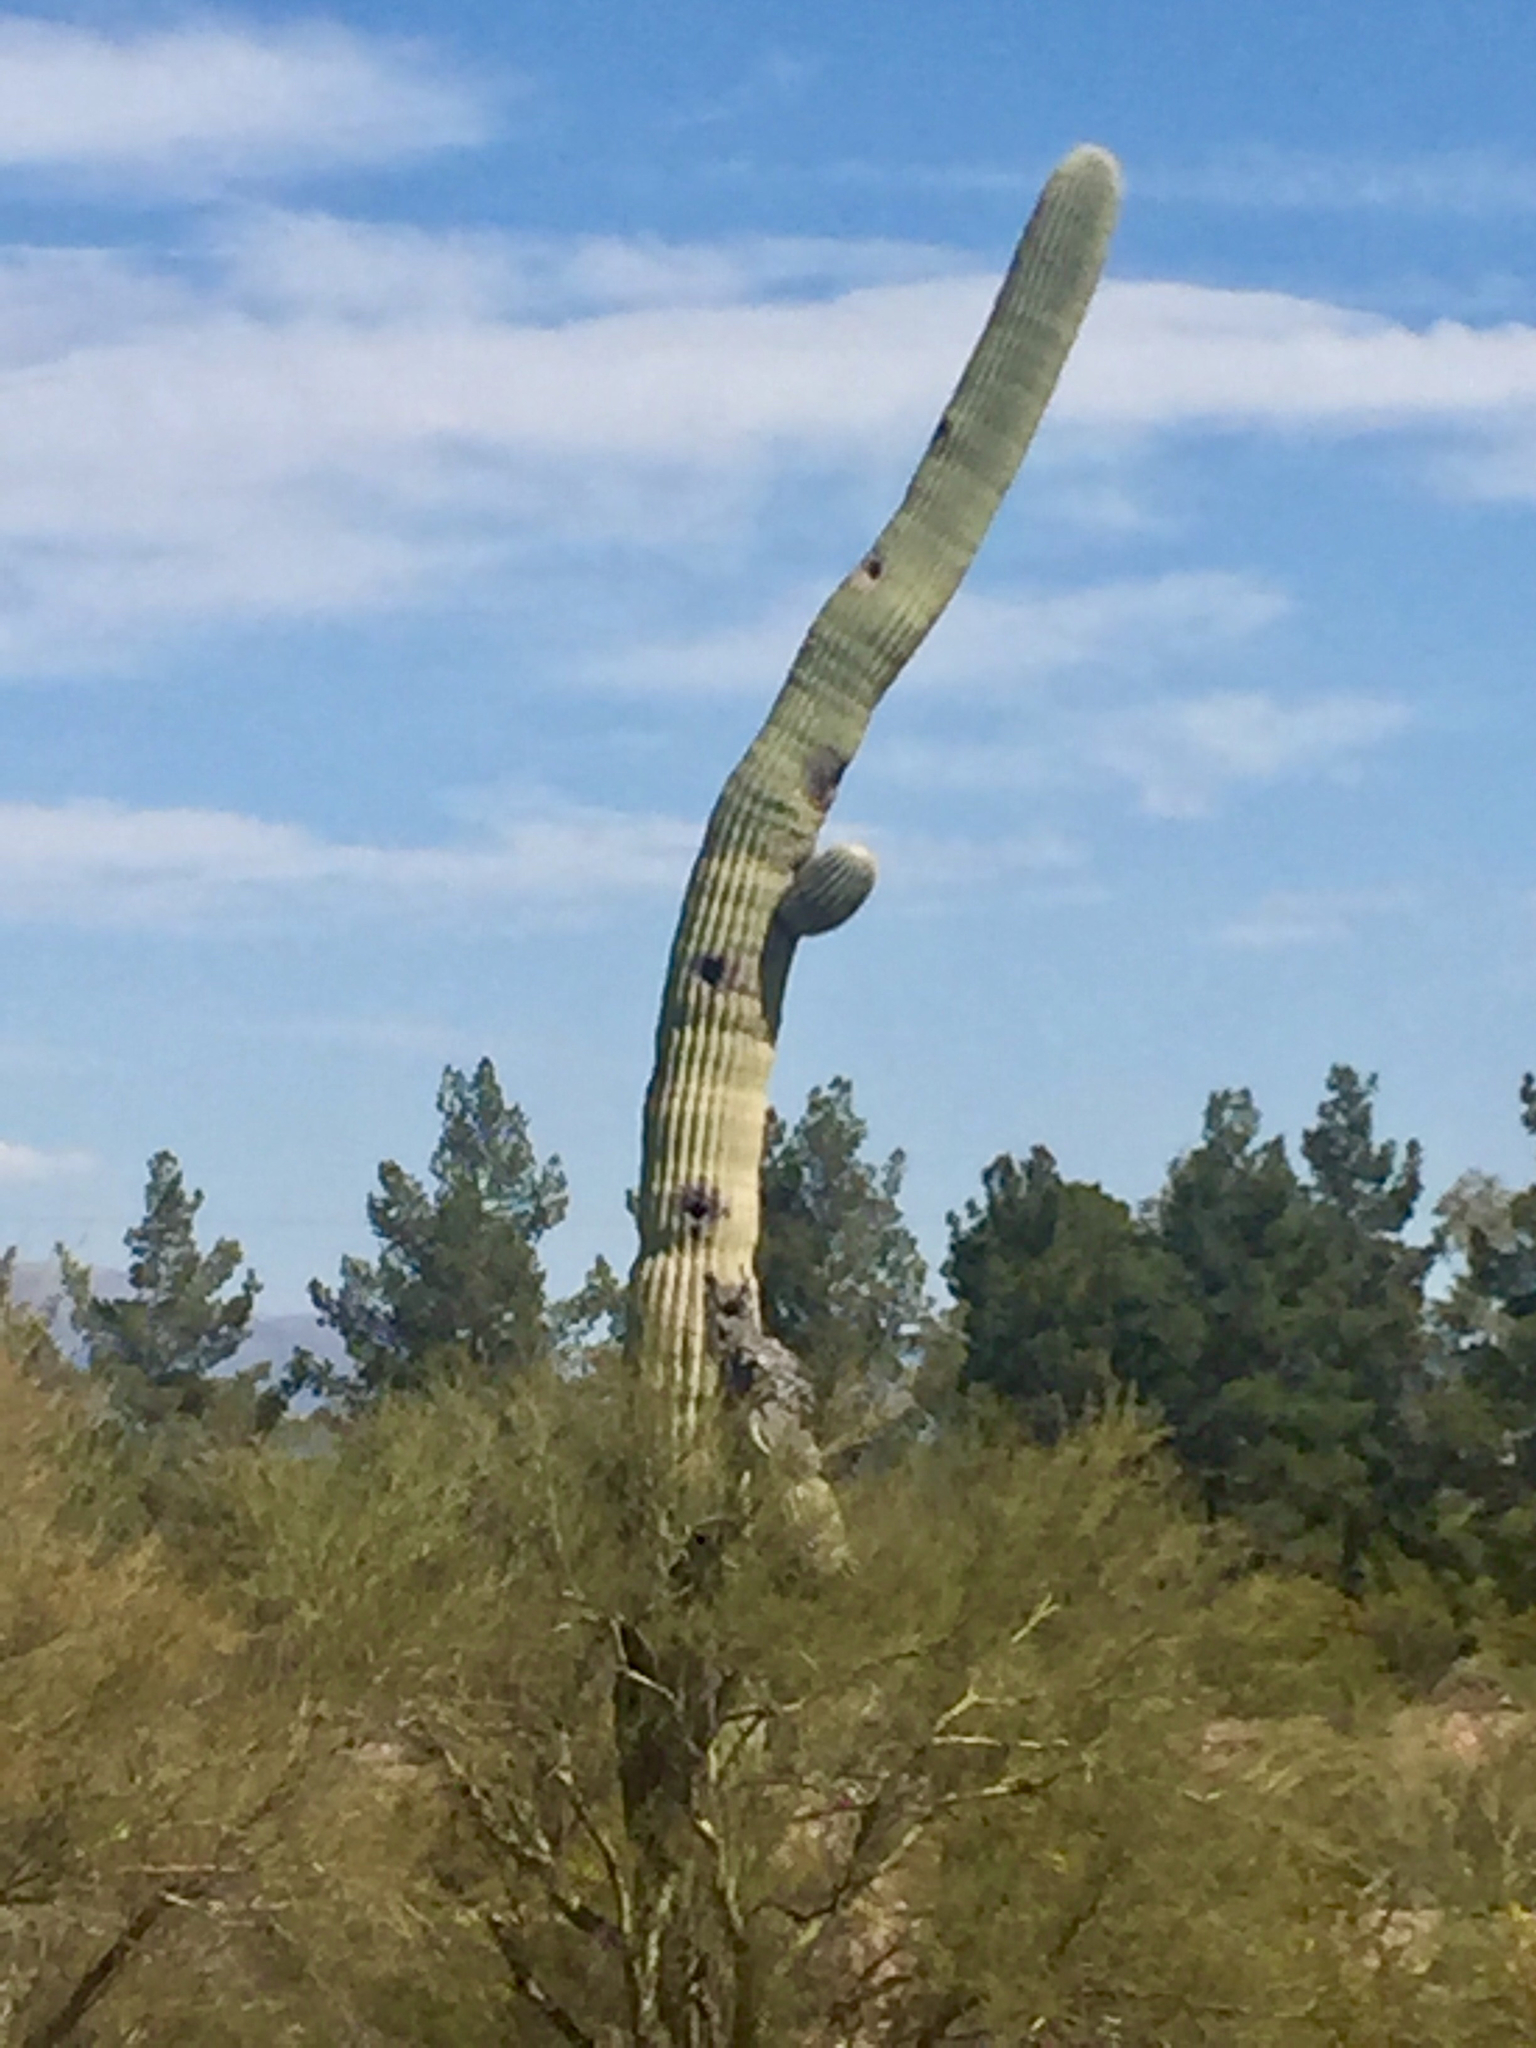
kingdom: Plantae
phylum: Tracheophyta
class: Magnoliopsida
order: Caryophyllales
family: Cactaceae
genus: Carnegiea
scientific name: Carnegiea gigantea
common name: Saguaro
